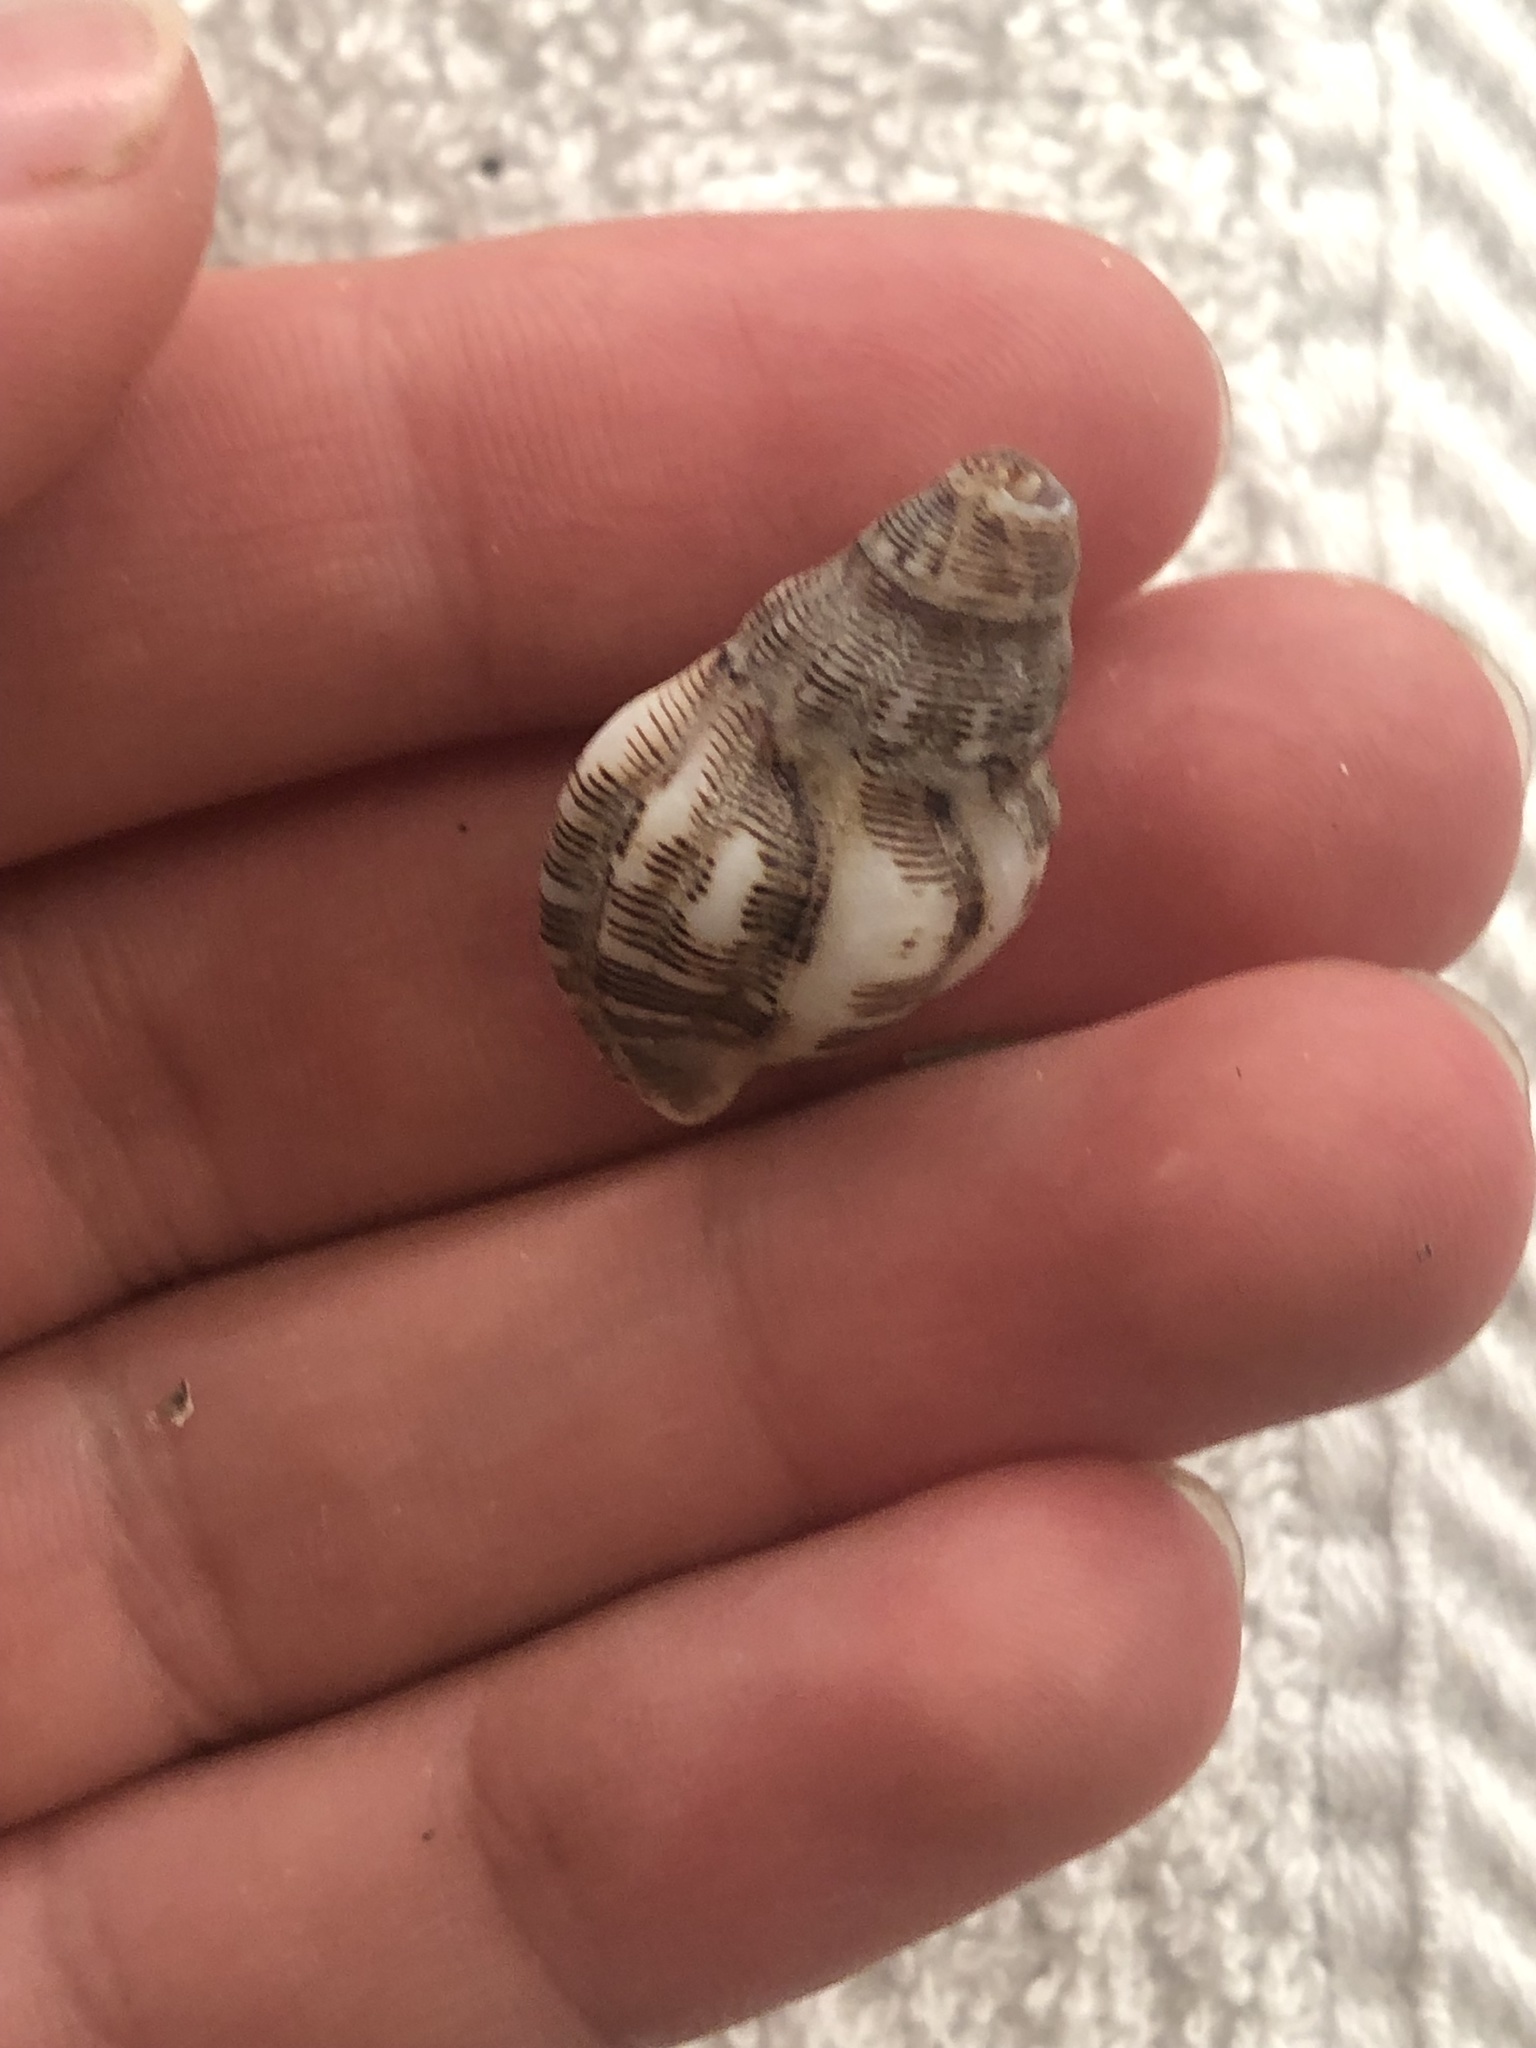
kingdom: Animalia
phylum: Mollusca
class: Gastropoda
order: Neogastropoda
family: Muricidae
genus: Roperia
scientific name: Roperia poulsoni
